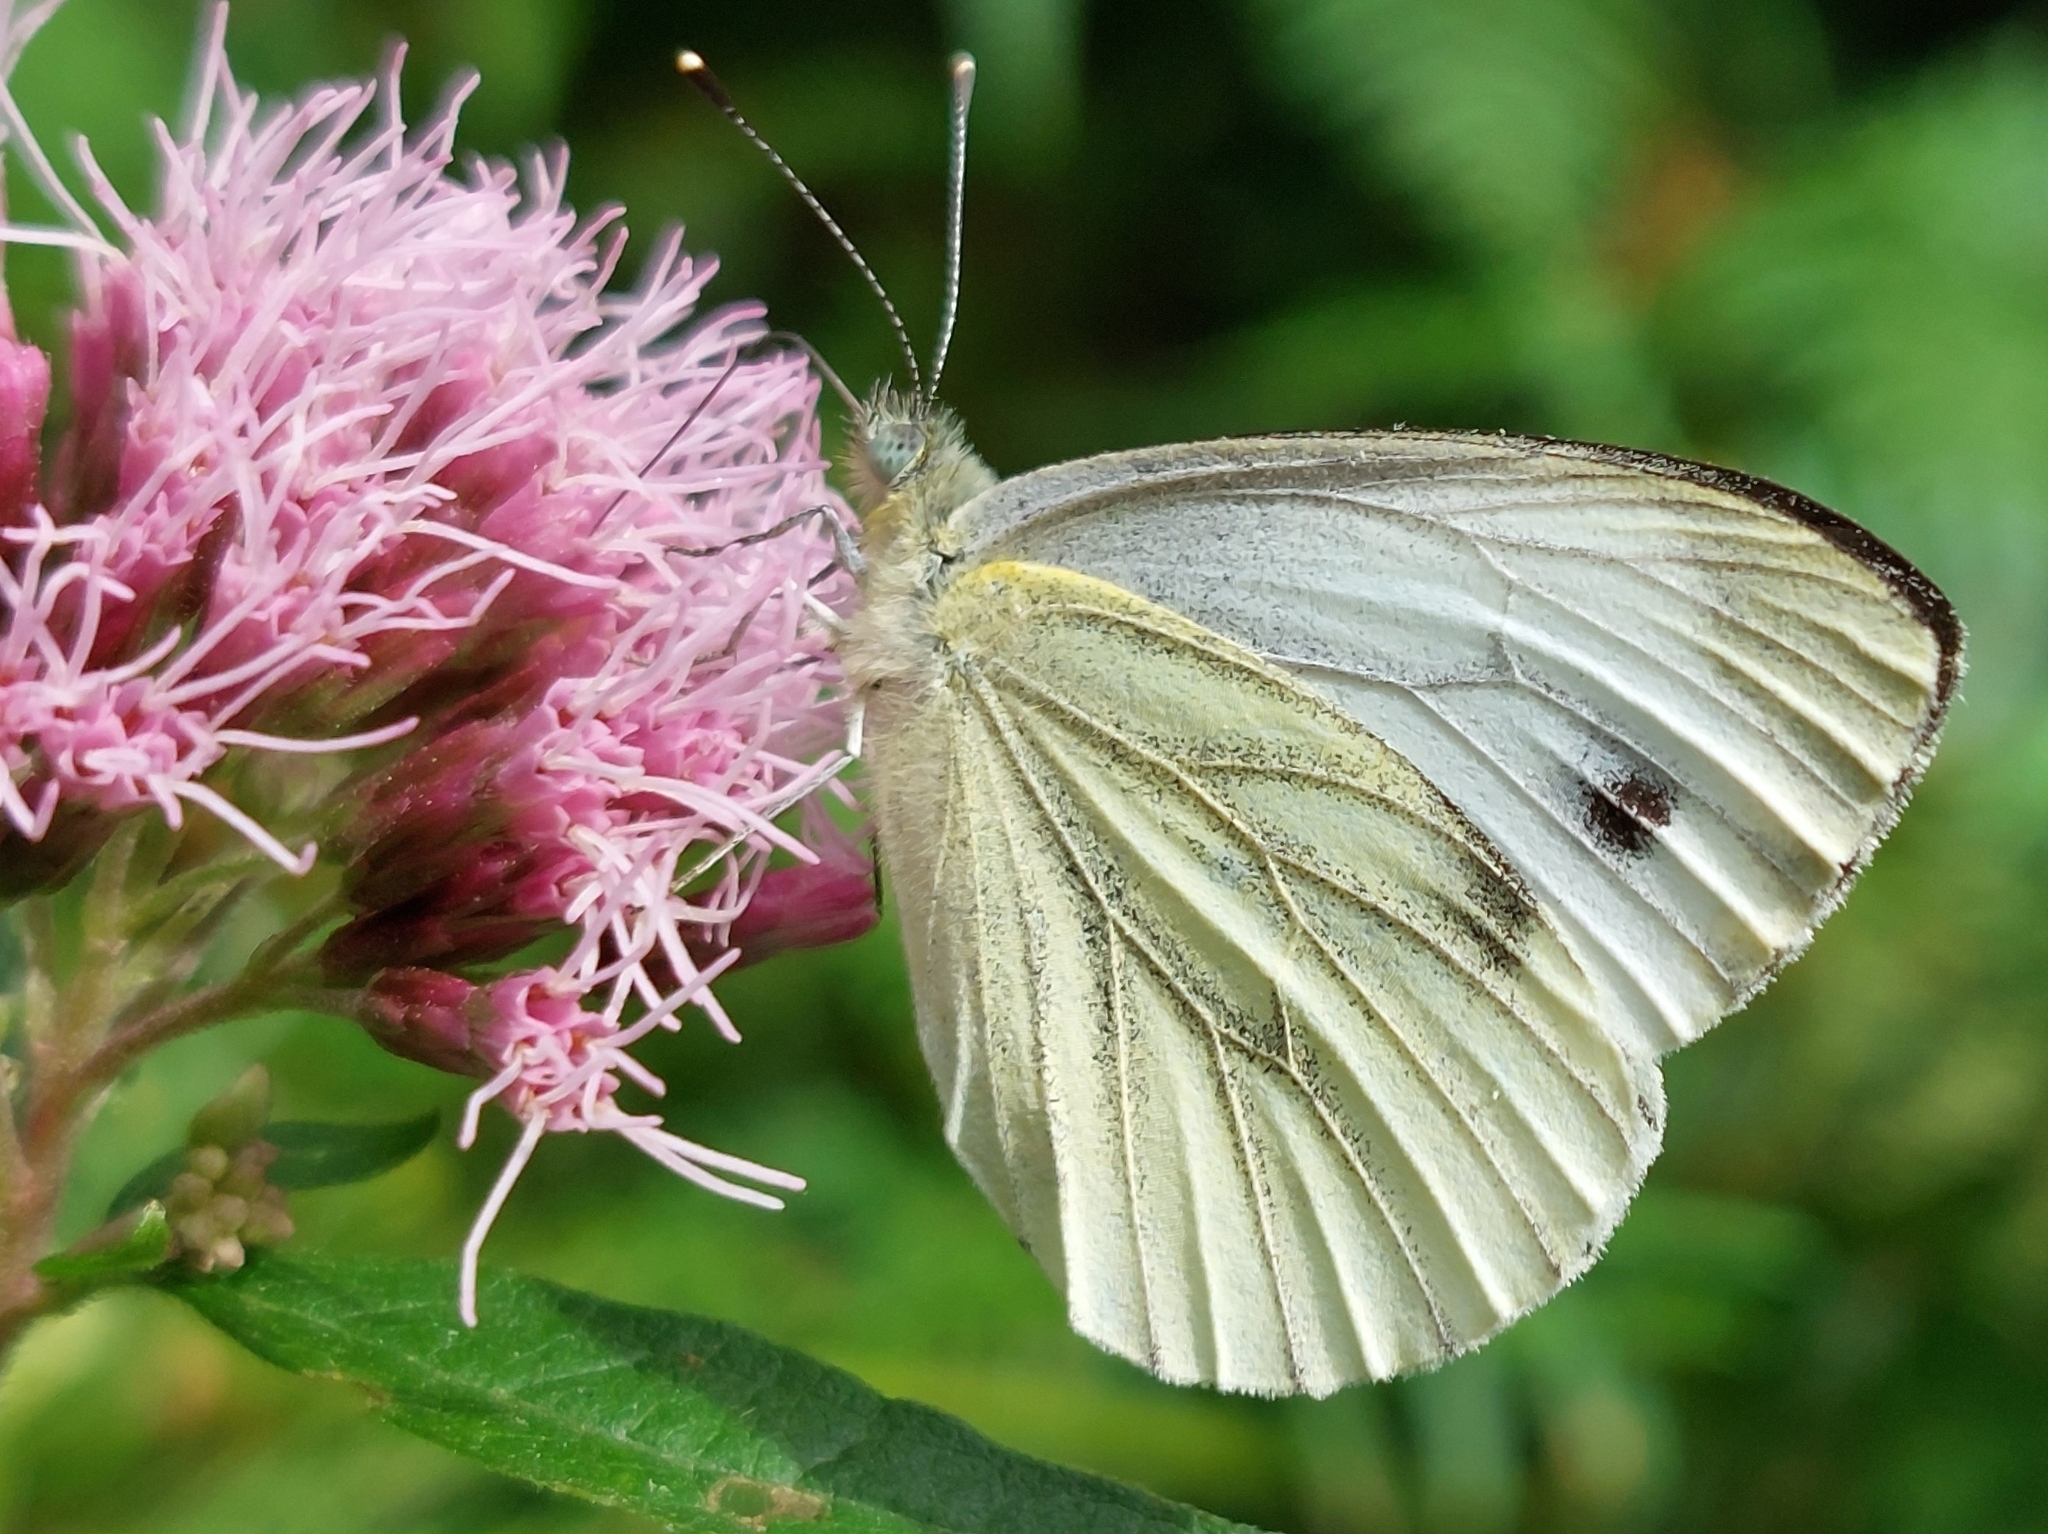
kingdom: Animalia
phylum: Arthropoda
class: Insecta
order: Lepidoptera
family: Pieridae
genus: Pieris
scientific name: Pieris napi
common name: Green-veined white
